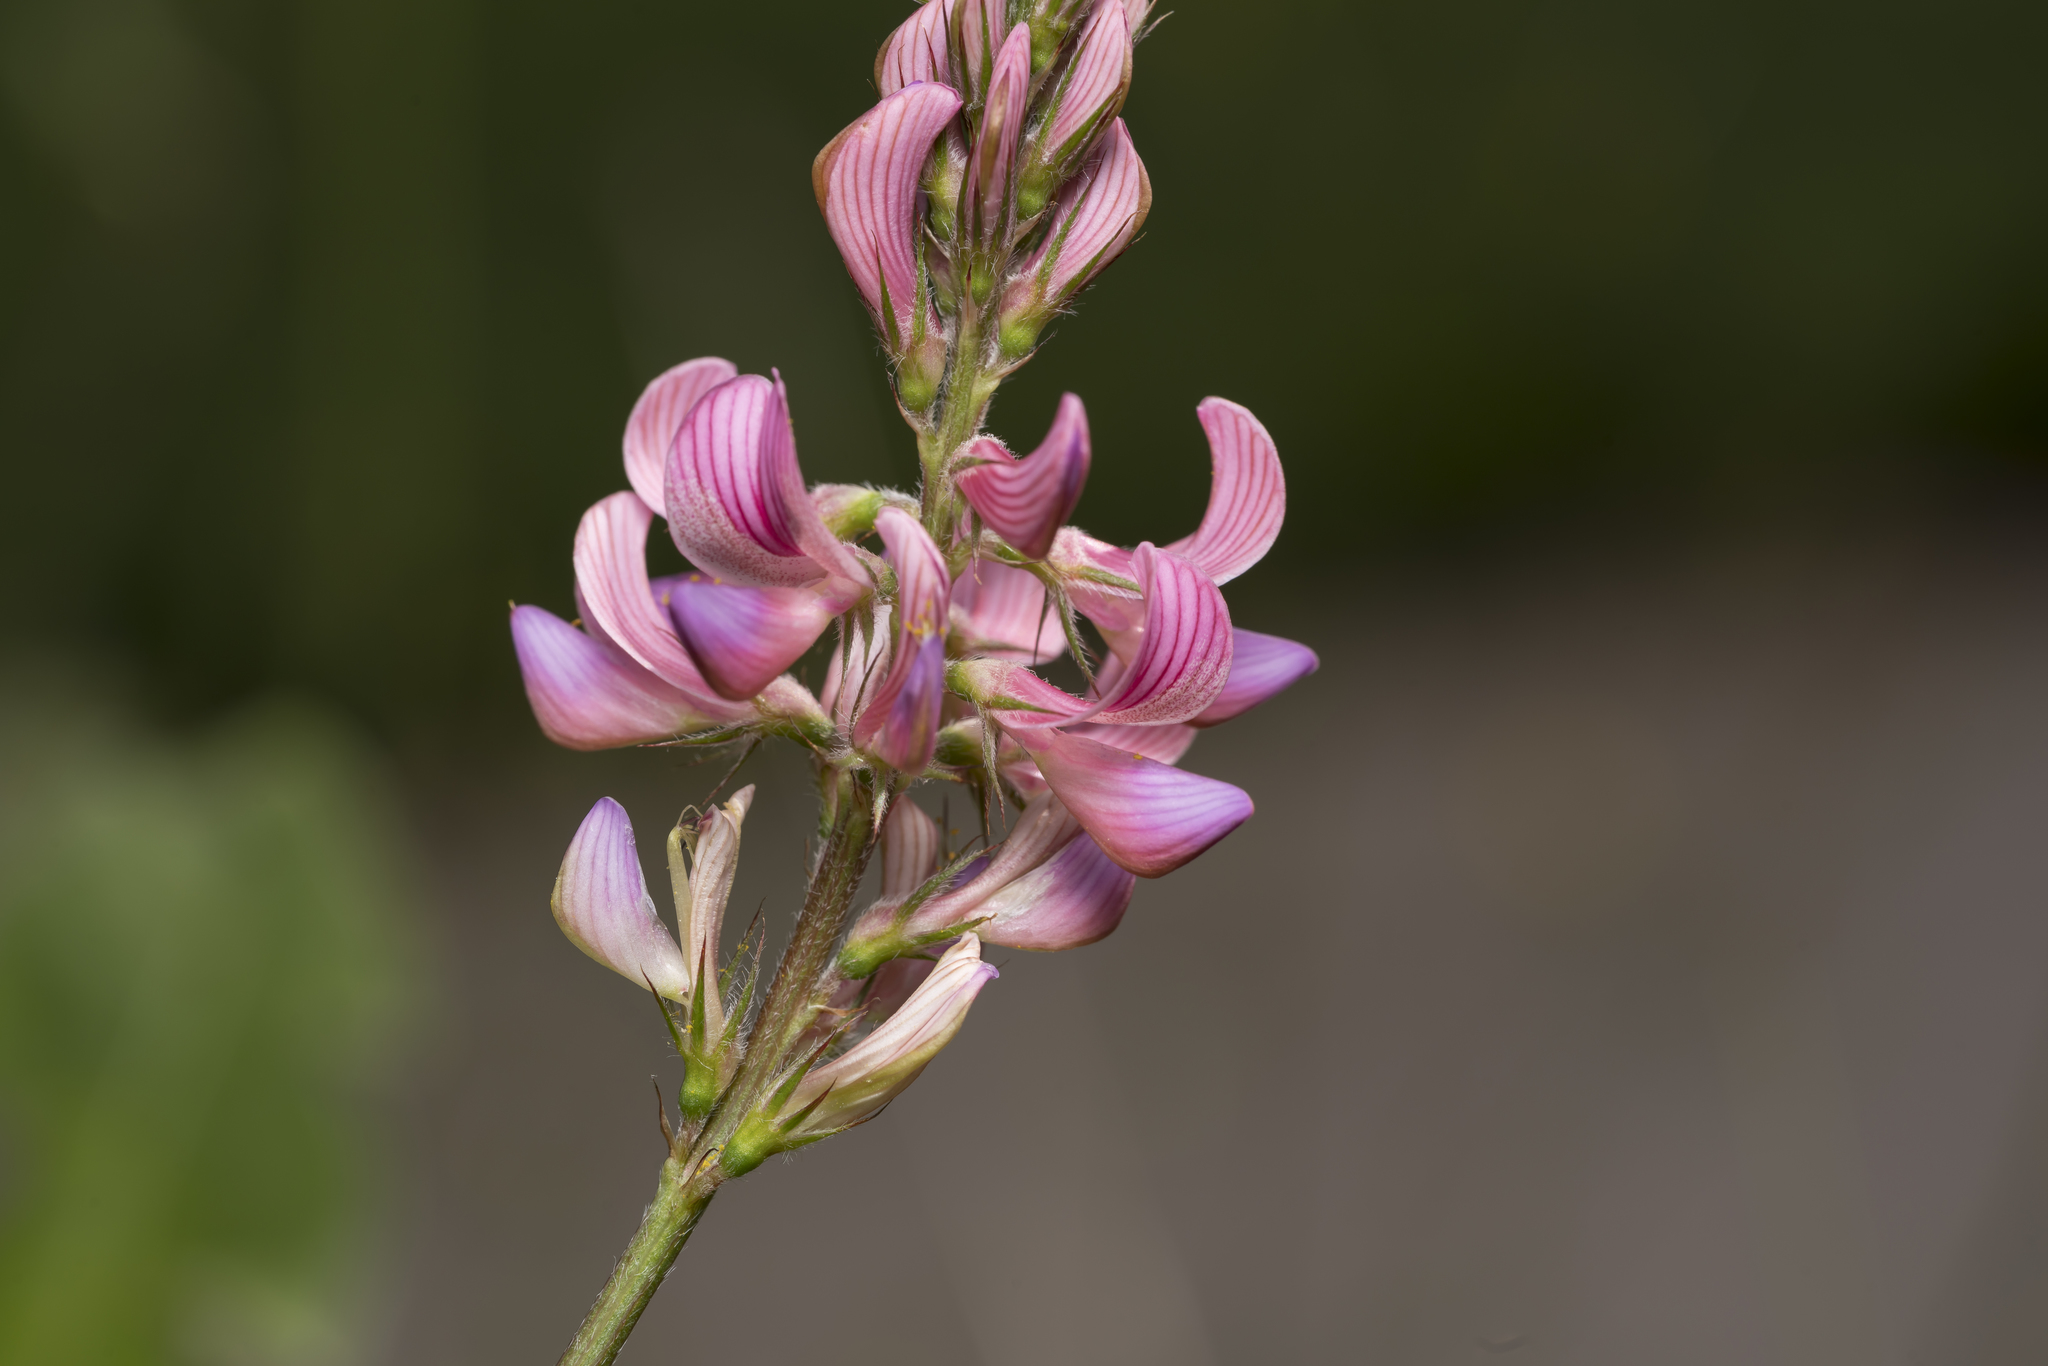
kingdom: Plantae
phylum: Tracheophyta
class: Magnoliopsida
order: Fabales
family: Fabaceae
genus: Onobrychis
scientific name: Onobrychis viciifolia
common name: Sainfoin
